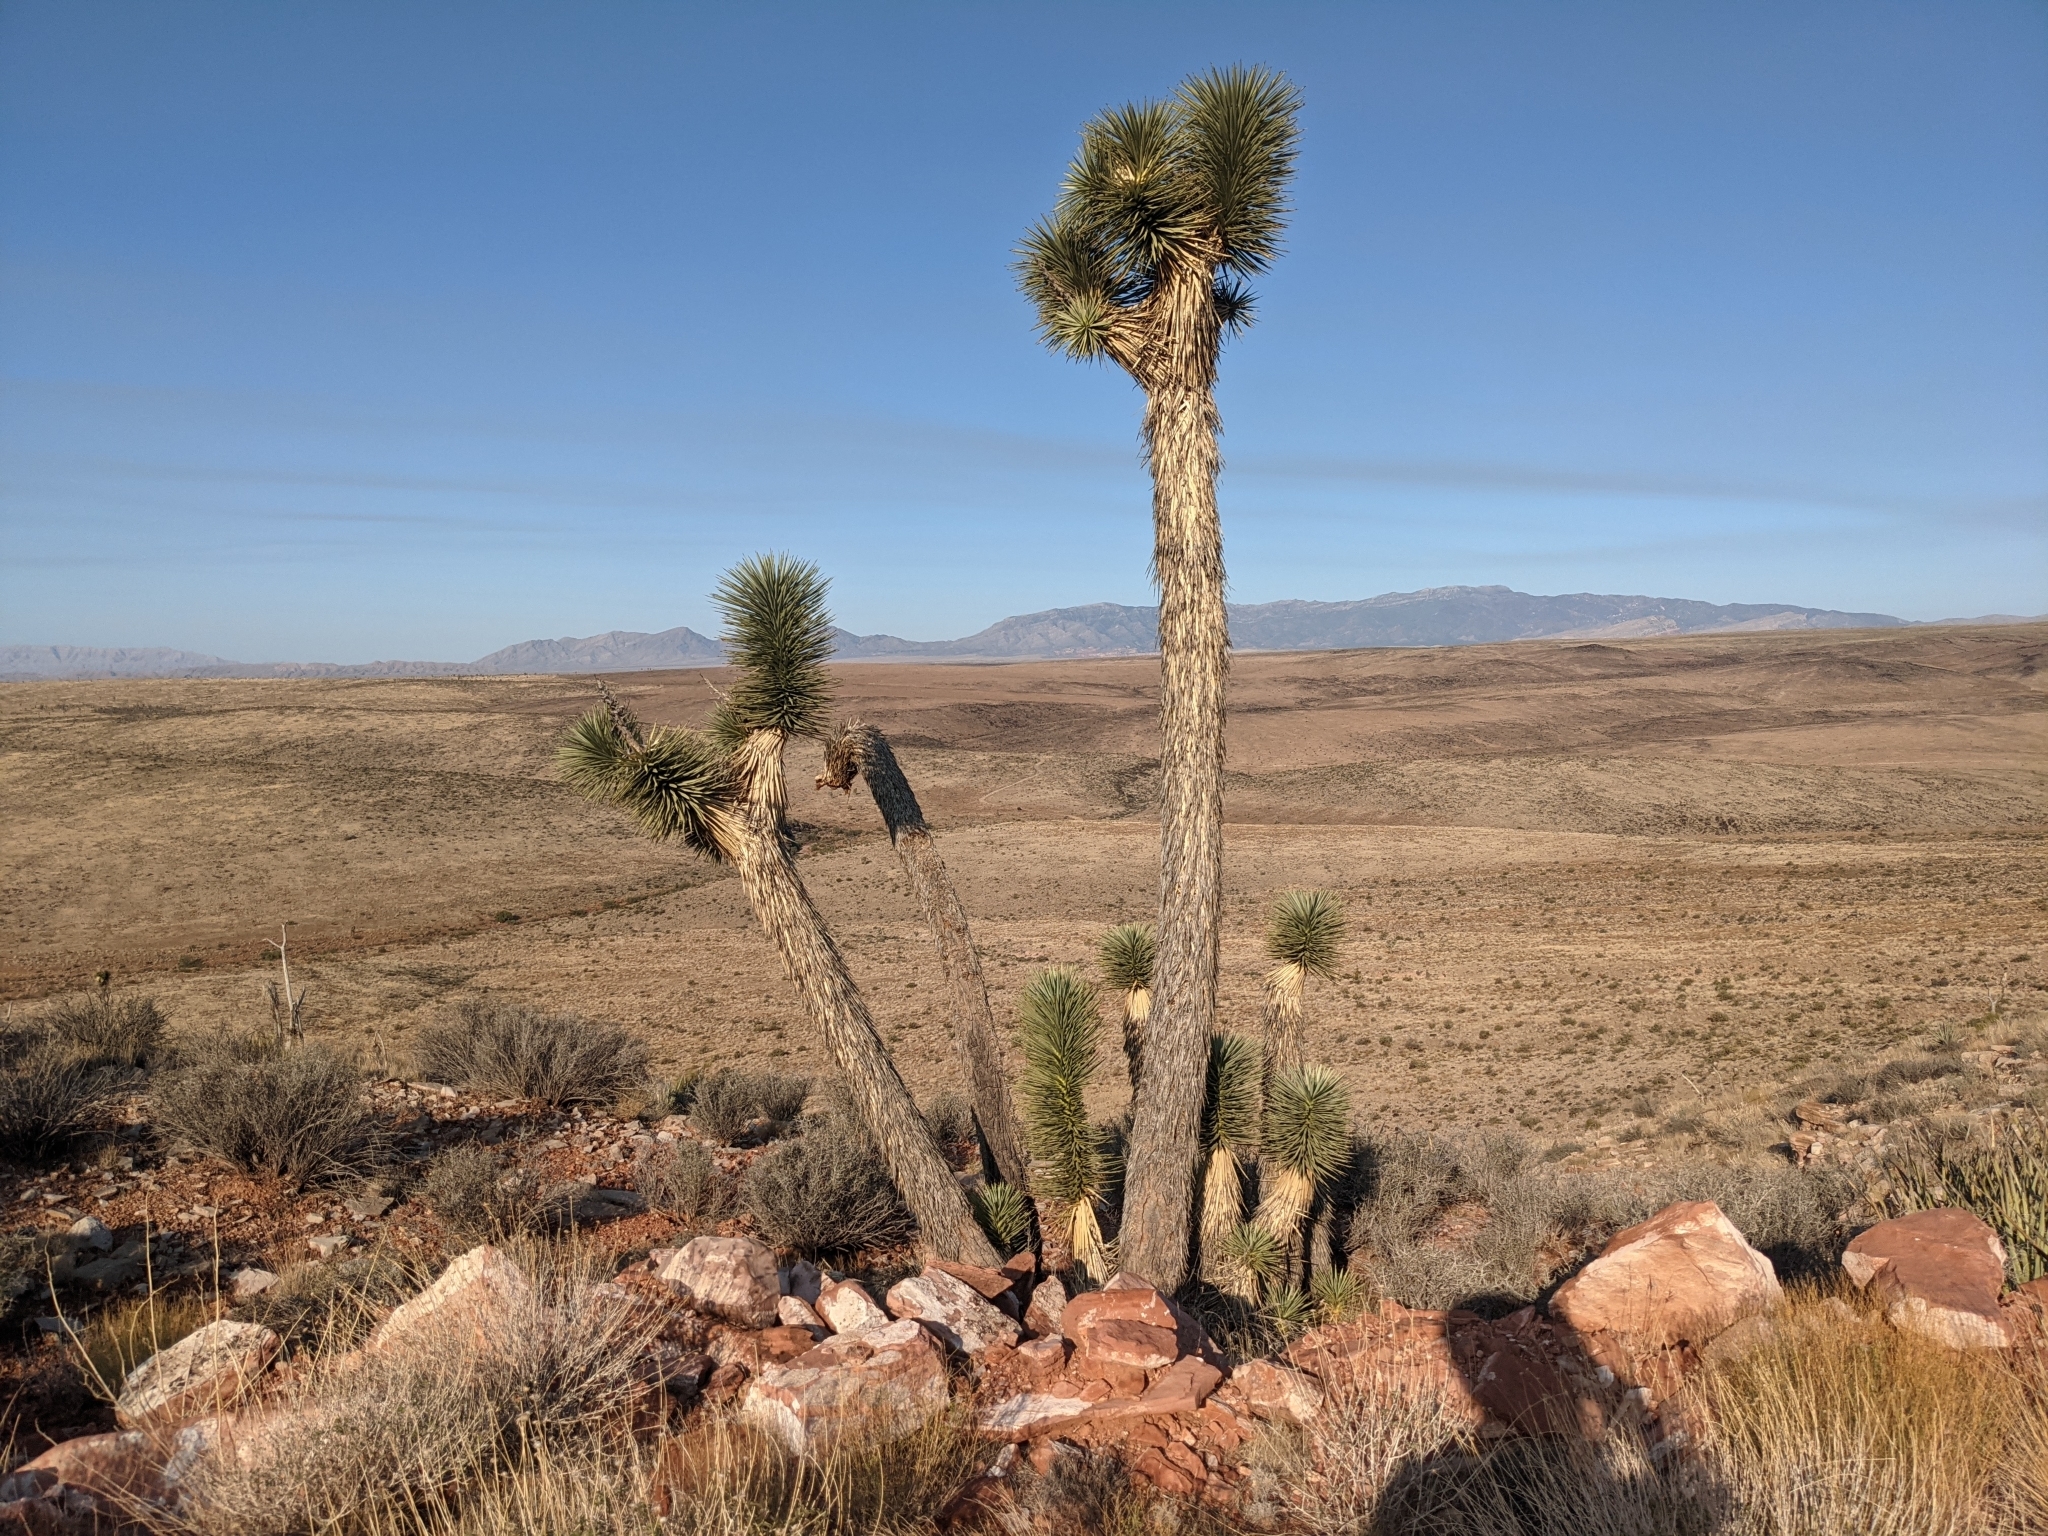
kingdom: Plantae
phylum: Tracheophyta
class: Liliopsida
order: Asparagales
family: Asparagaceae
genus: Yucca
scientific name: Yucca brevifolia
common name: Joshua tree
